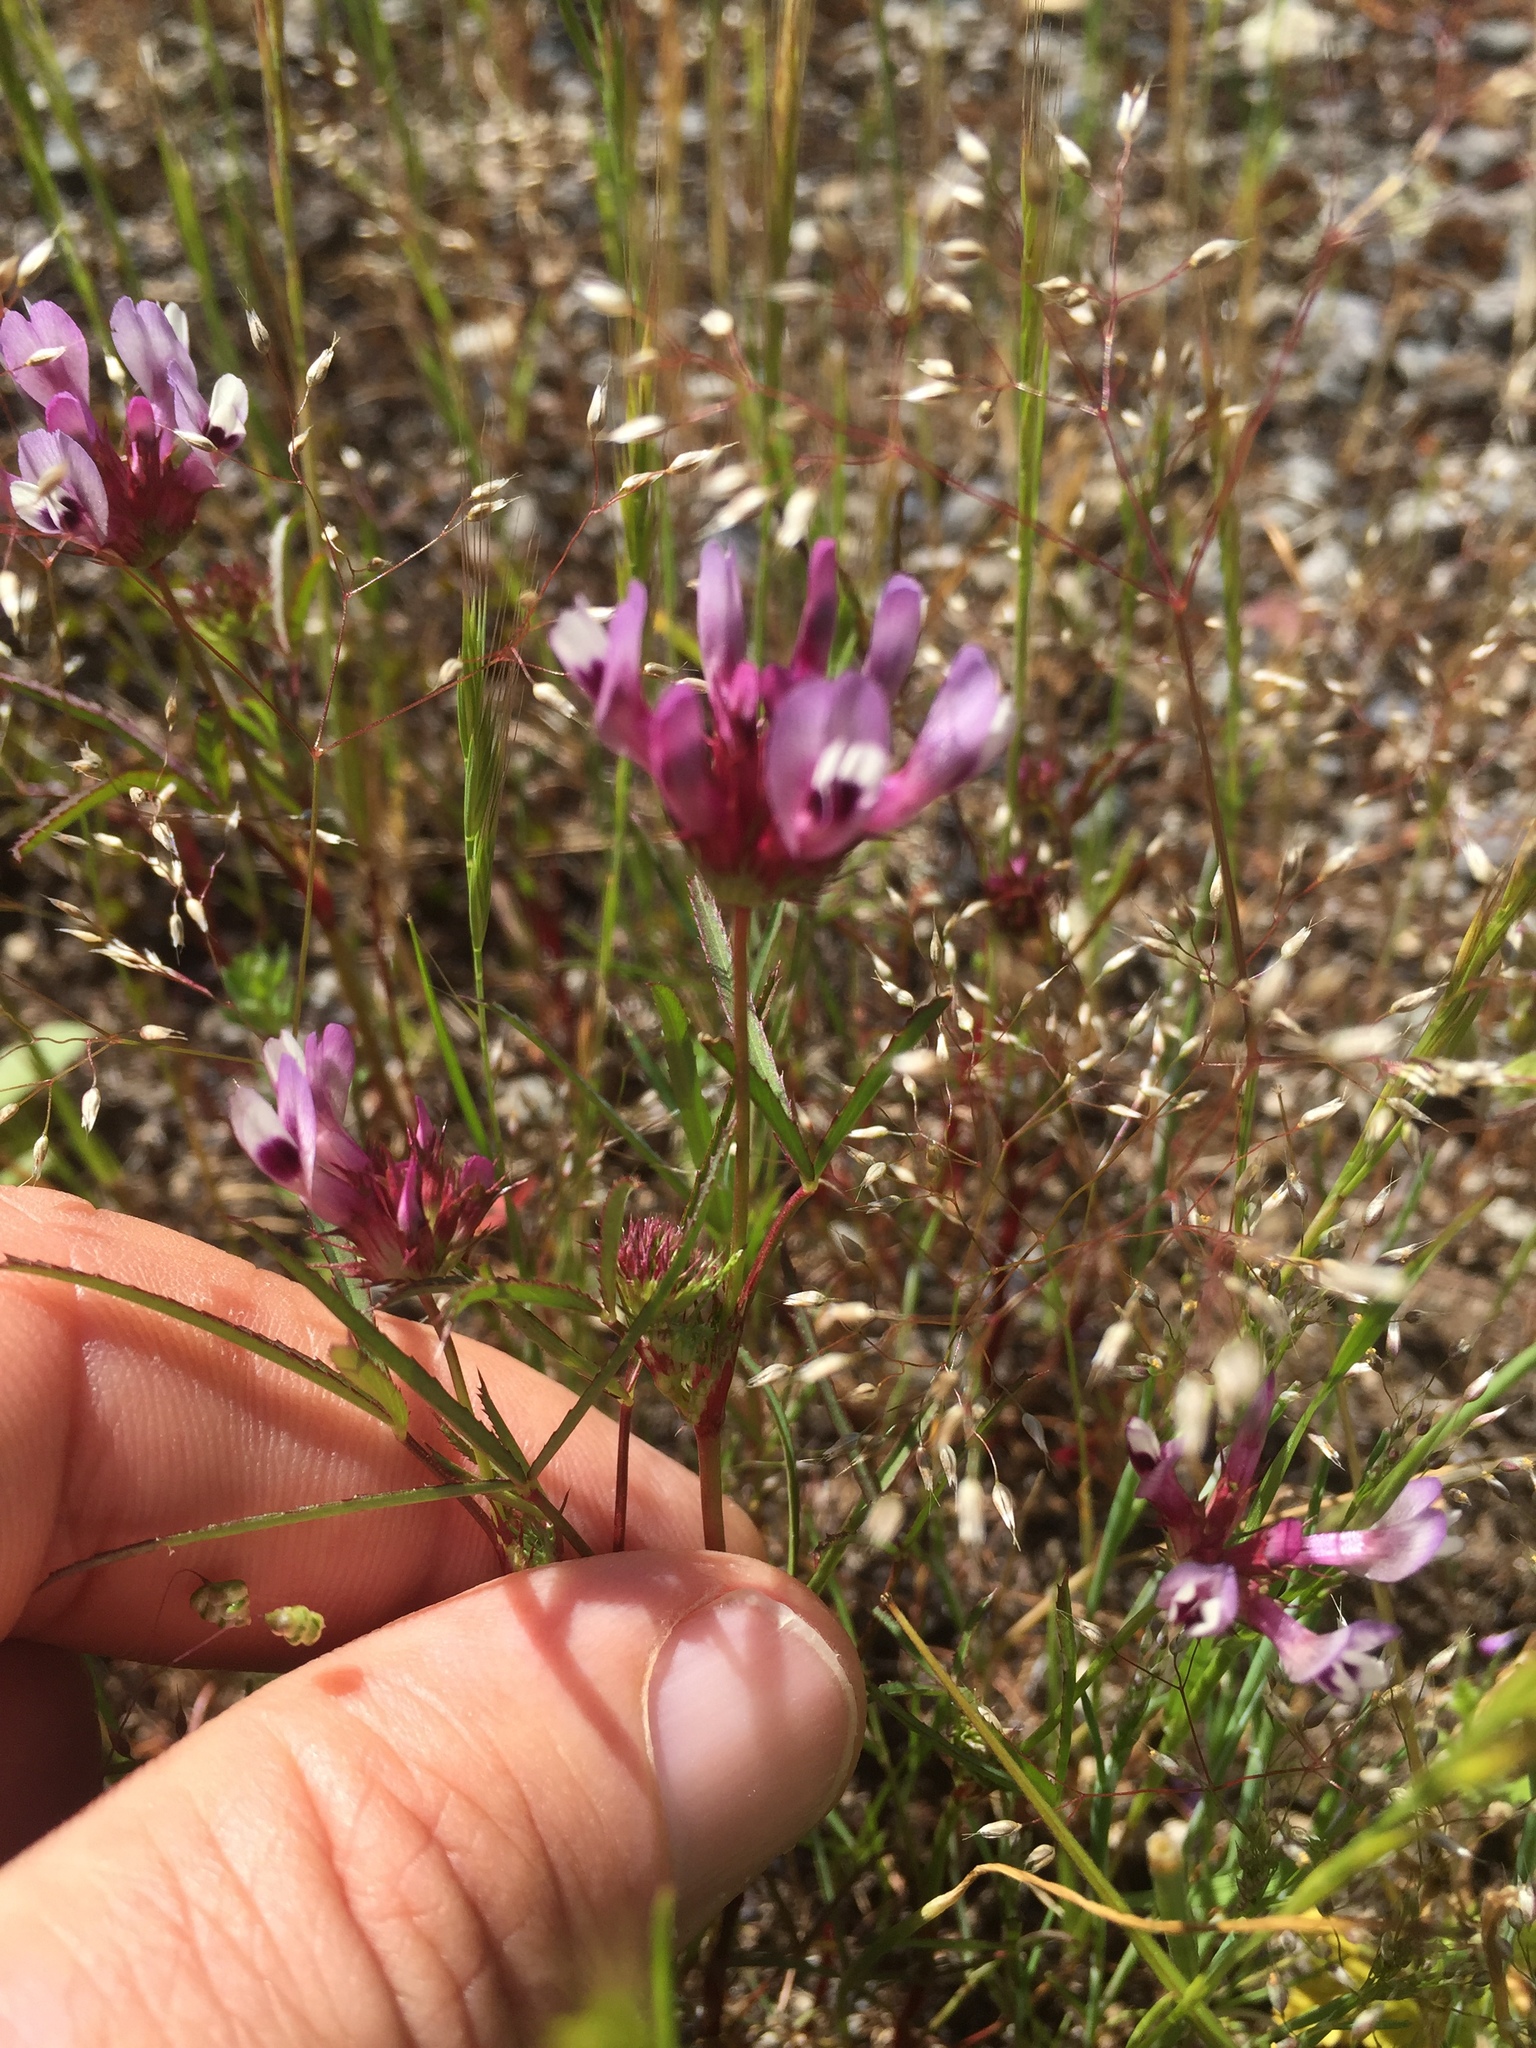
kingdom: Plantae
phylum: Tracheophyta
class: Magnoliopsida
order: Fabales
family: Fabaceae
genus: Trifolium
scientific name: Trifolium willdenovii
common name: Tomcat clover
